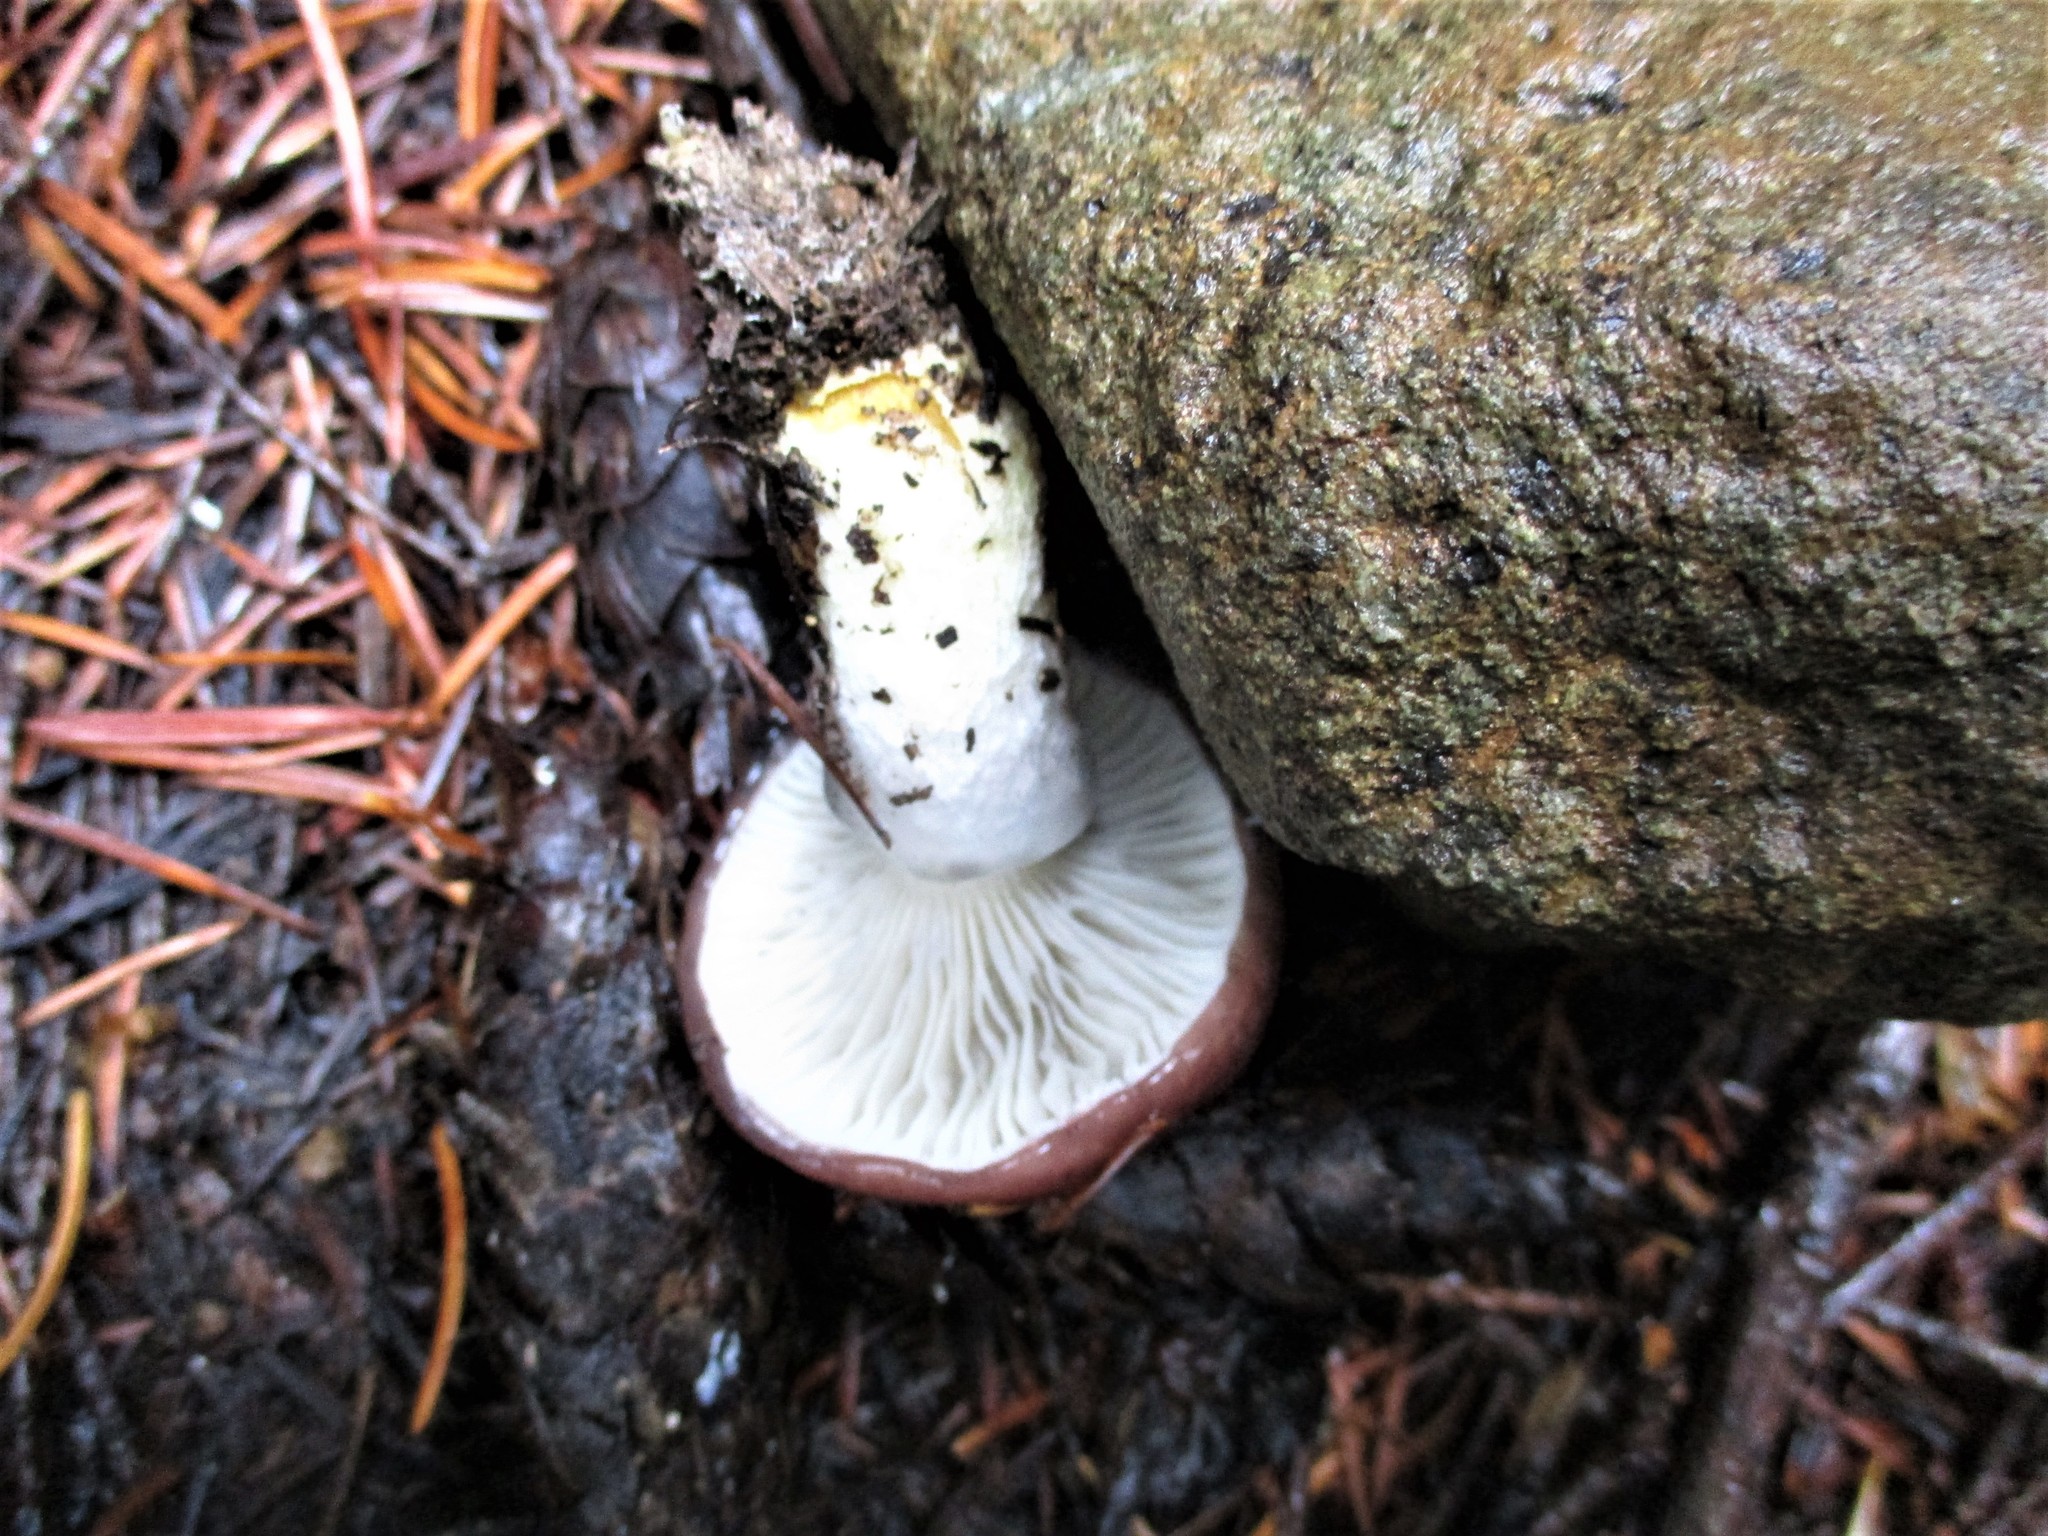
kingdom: Fungi
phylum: Basidiomycota
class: Agaricomycetes
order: Boletales
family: Gomphidiaceae
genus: Gomphidius
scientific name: Gomphidius subroseus
